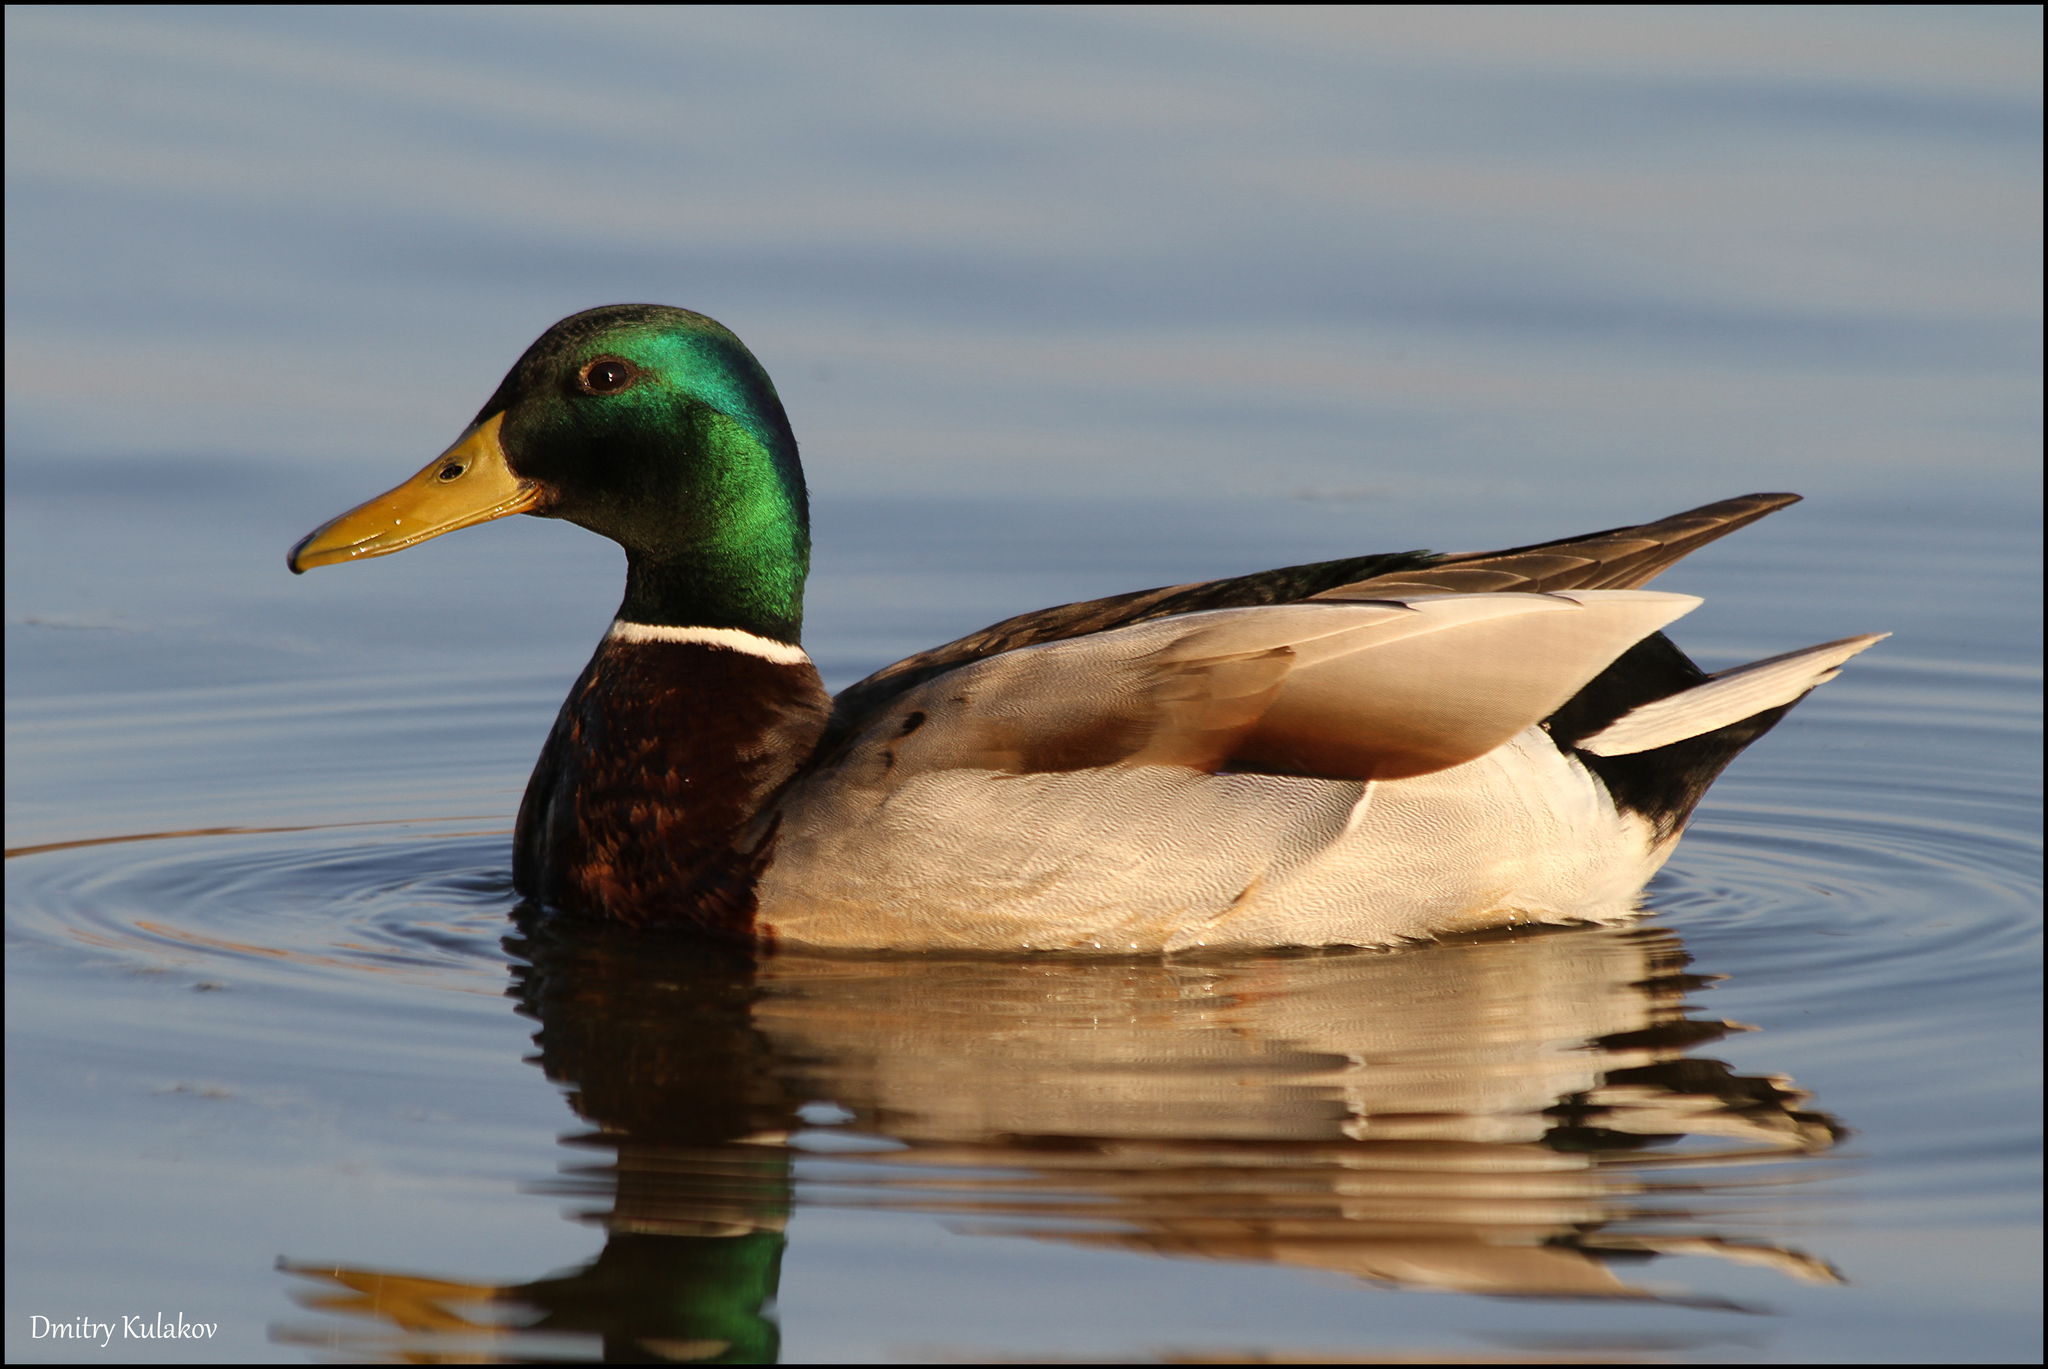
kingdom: Animalia
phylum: Chordata
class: Aves
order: Anseriformes
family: Anatidae
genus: Anas
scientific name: Anas platyrhynchos
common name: Mallard
